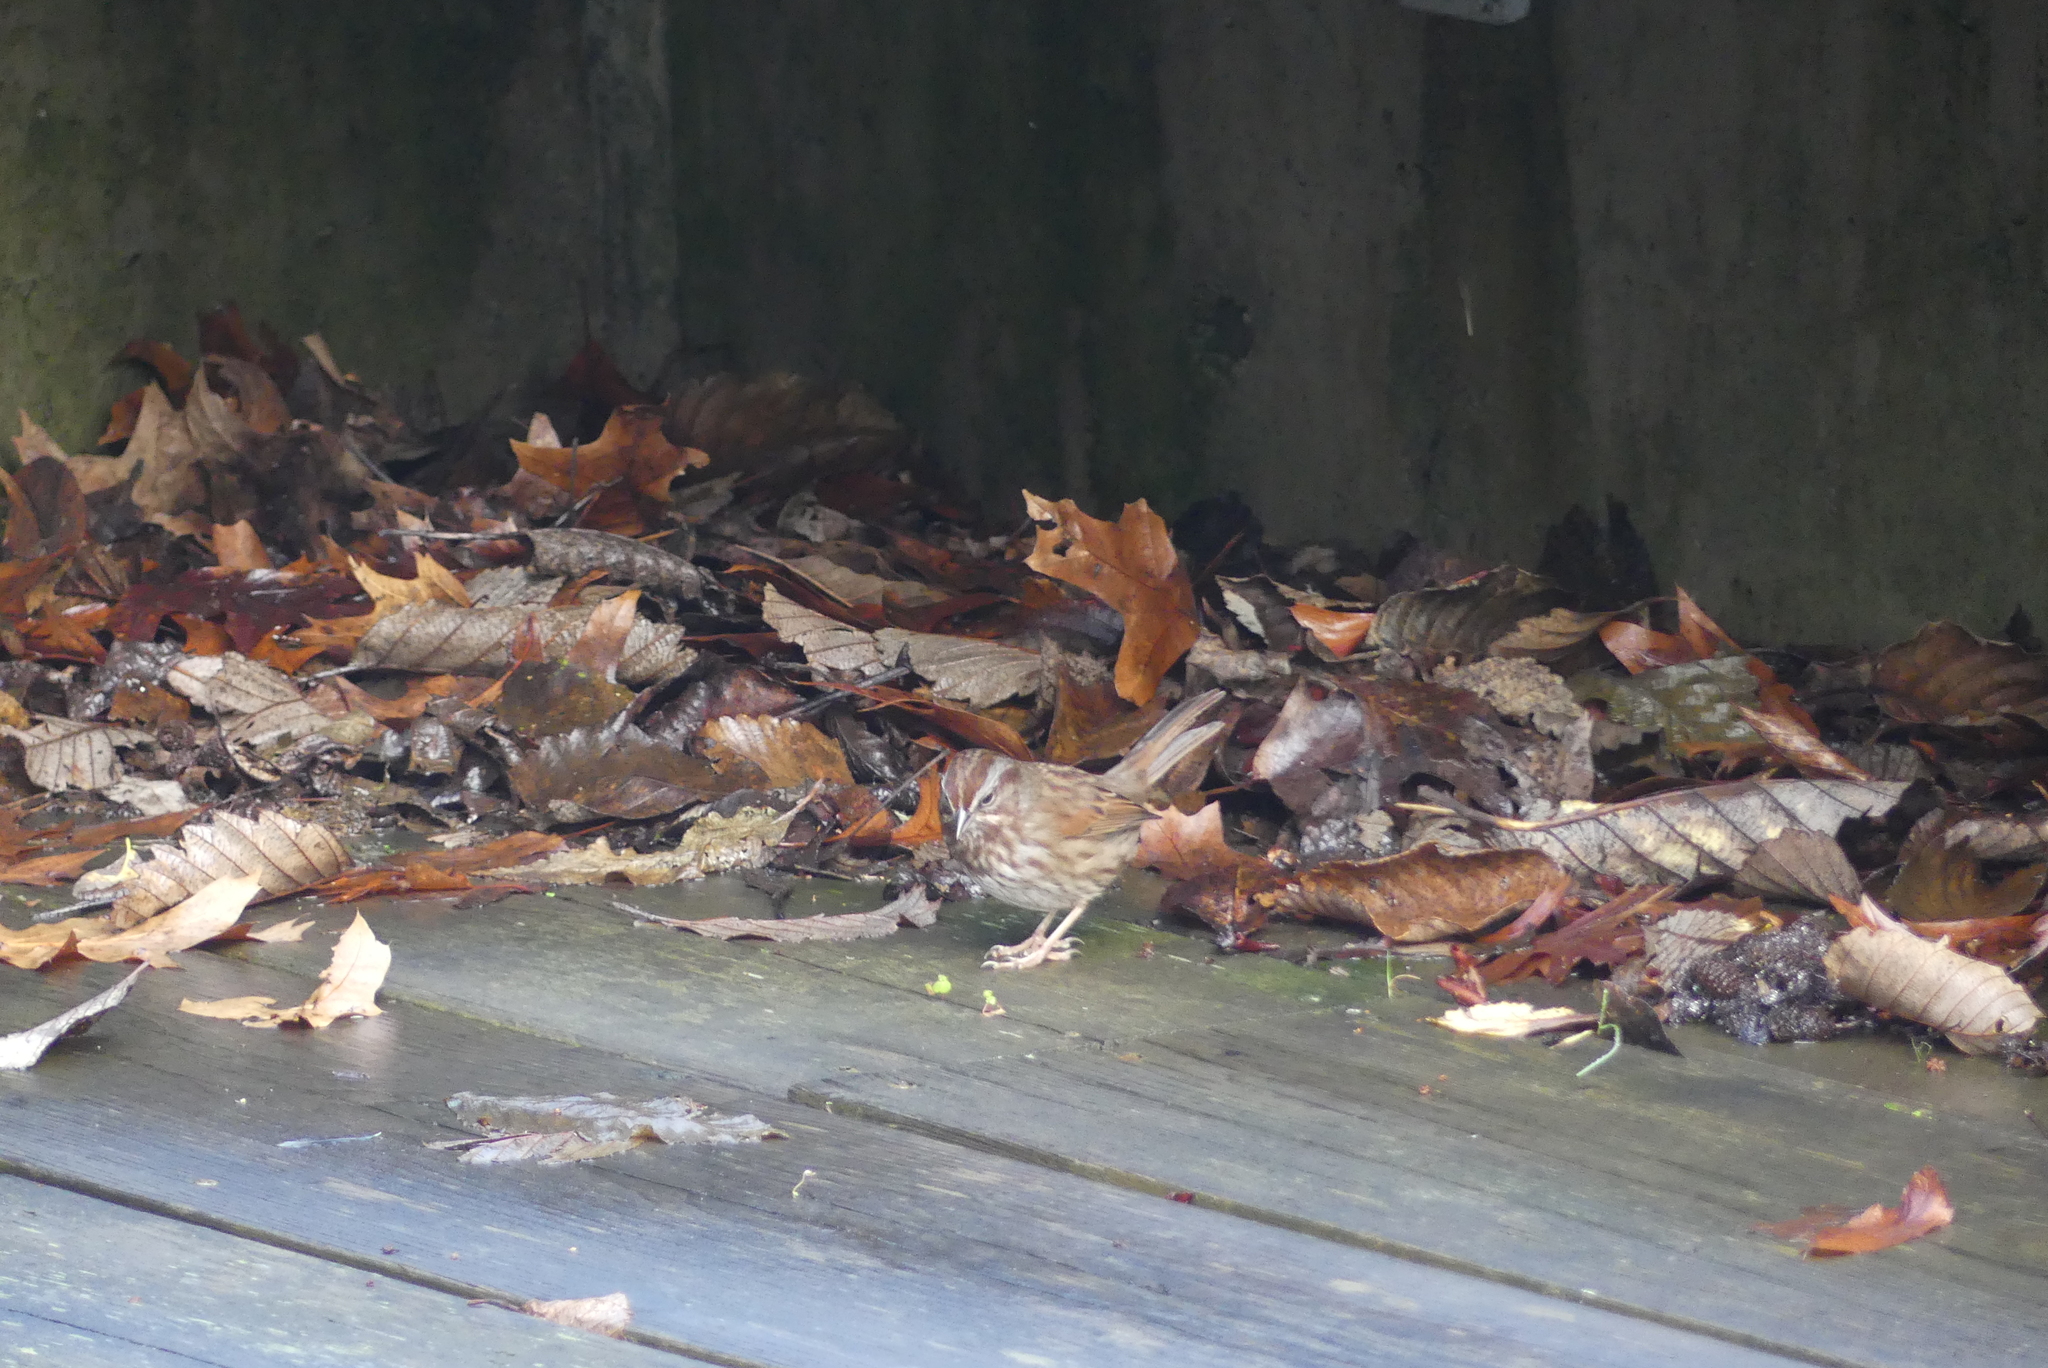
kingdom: Animalia
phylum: Chordata
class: Aves
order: Passeriformes
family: Passerellidae
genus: Melospiza
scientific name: Melospiza melodia
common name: Song sparrow
